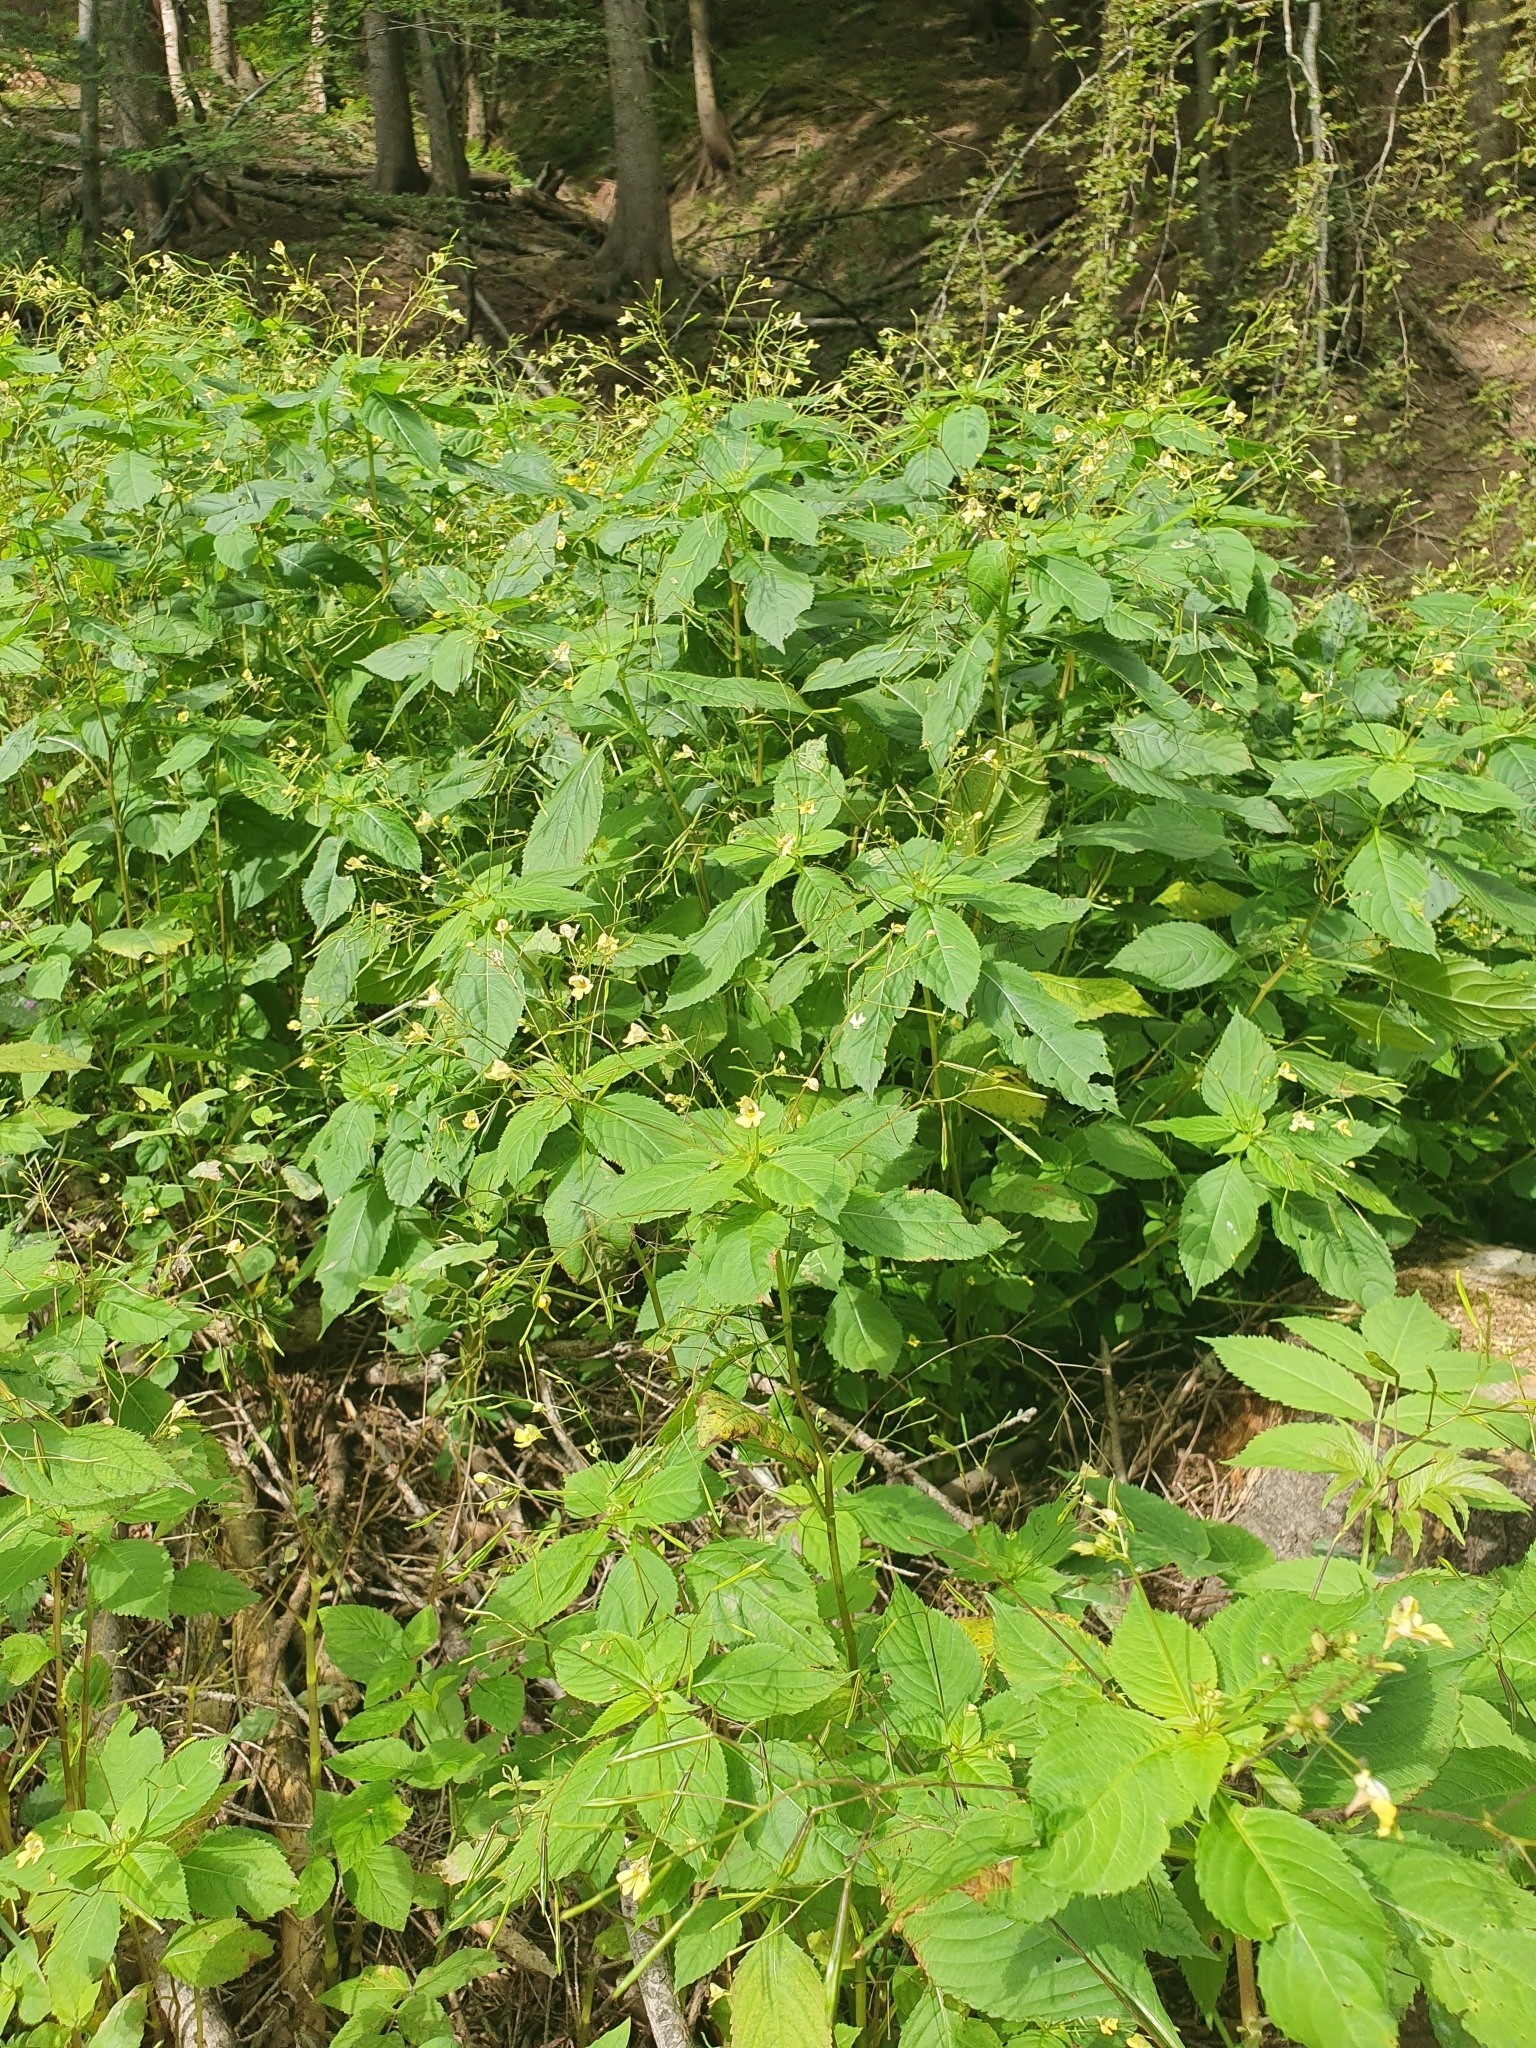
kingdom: Plantae
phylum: Tracheophyta
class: Magnoliopsida
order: Ericales
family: Balsaminaceae
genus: Impatiens
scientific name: Impatiens parviflora
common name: Small balsam
